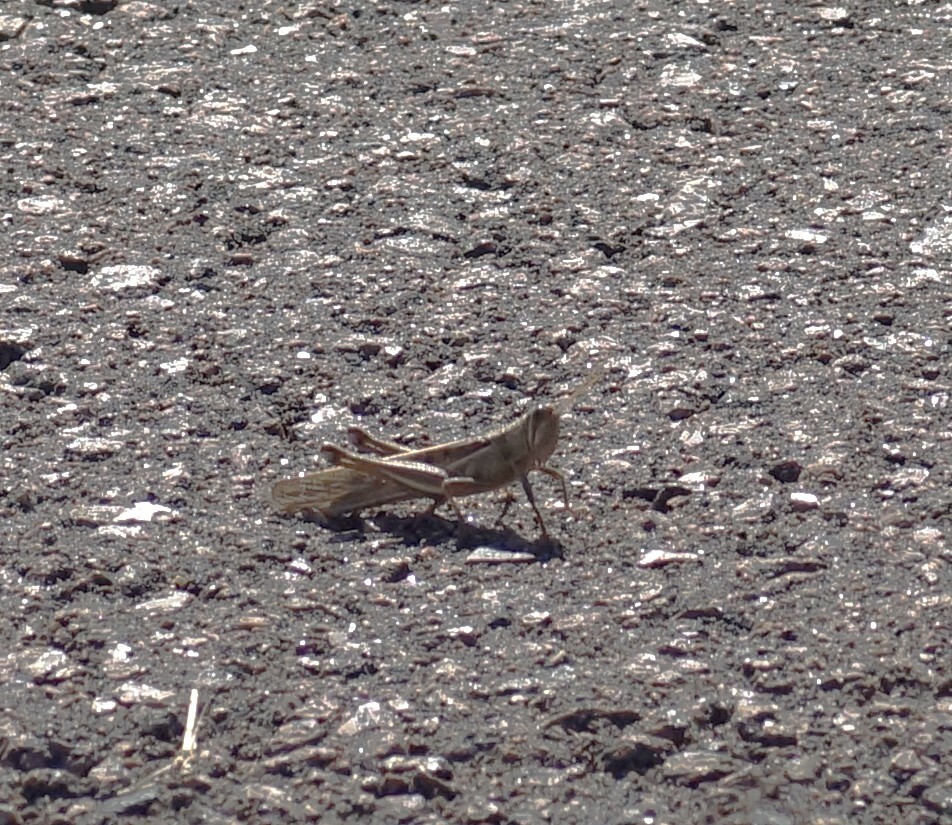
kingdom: Animalia
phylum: Arthropoda
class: Insecta
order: Orthoptera
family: Acrididae
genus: Austracris
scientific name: Austracris basalis
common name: Spotted spur-throated locust
